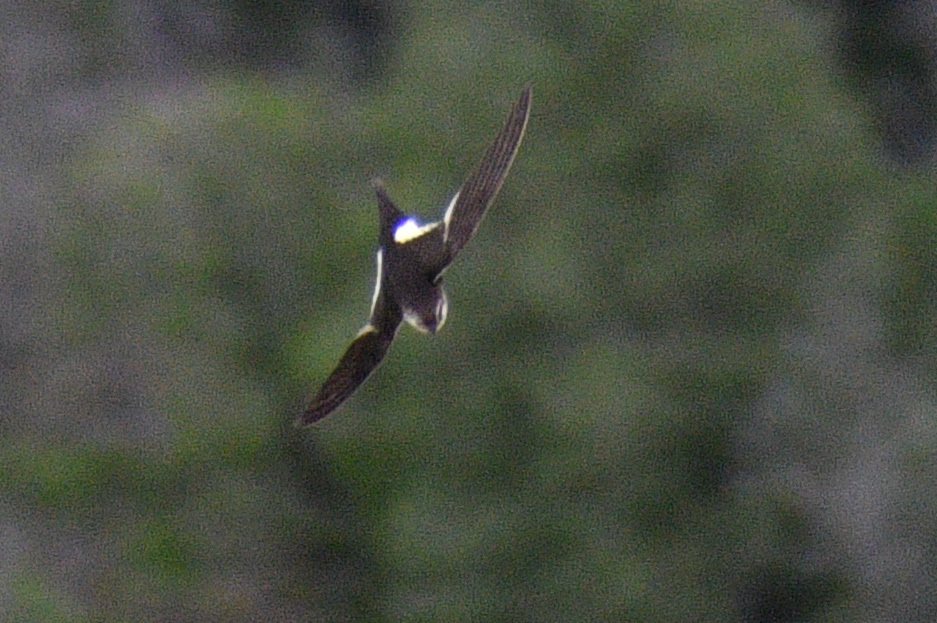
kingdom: Animalia
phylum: Chordata
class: Aves
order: Apodiformes
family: Apodidae
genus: Aeronautes
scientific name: Aeronautes saxatalis
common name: White-throated swift
